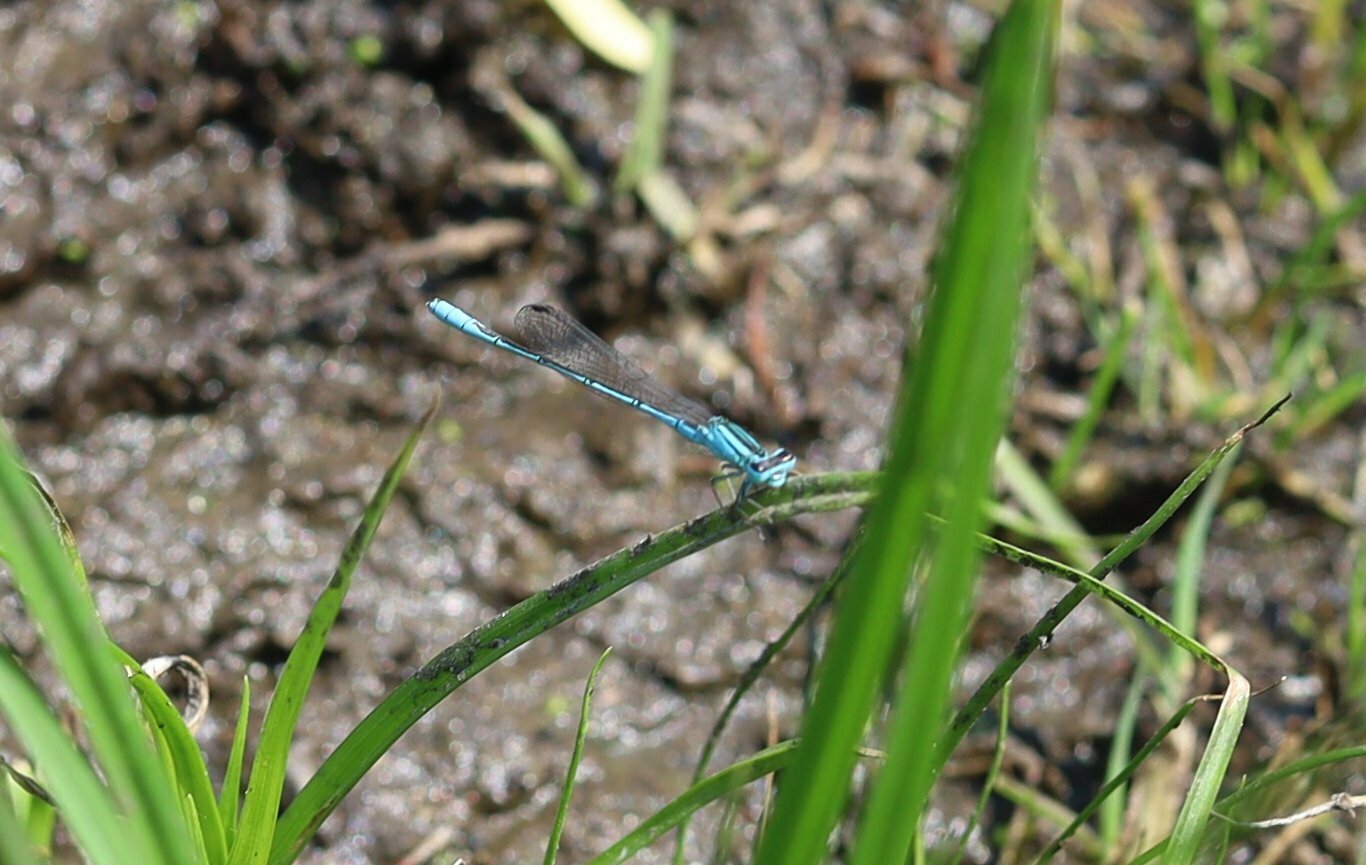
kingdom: Animalia
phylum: Arthropoda
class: Insecta
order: Odonata
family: Coenagrionidae
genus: Africallagma
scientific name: Africallagma glaucum
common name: Swamp bluet
